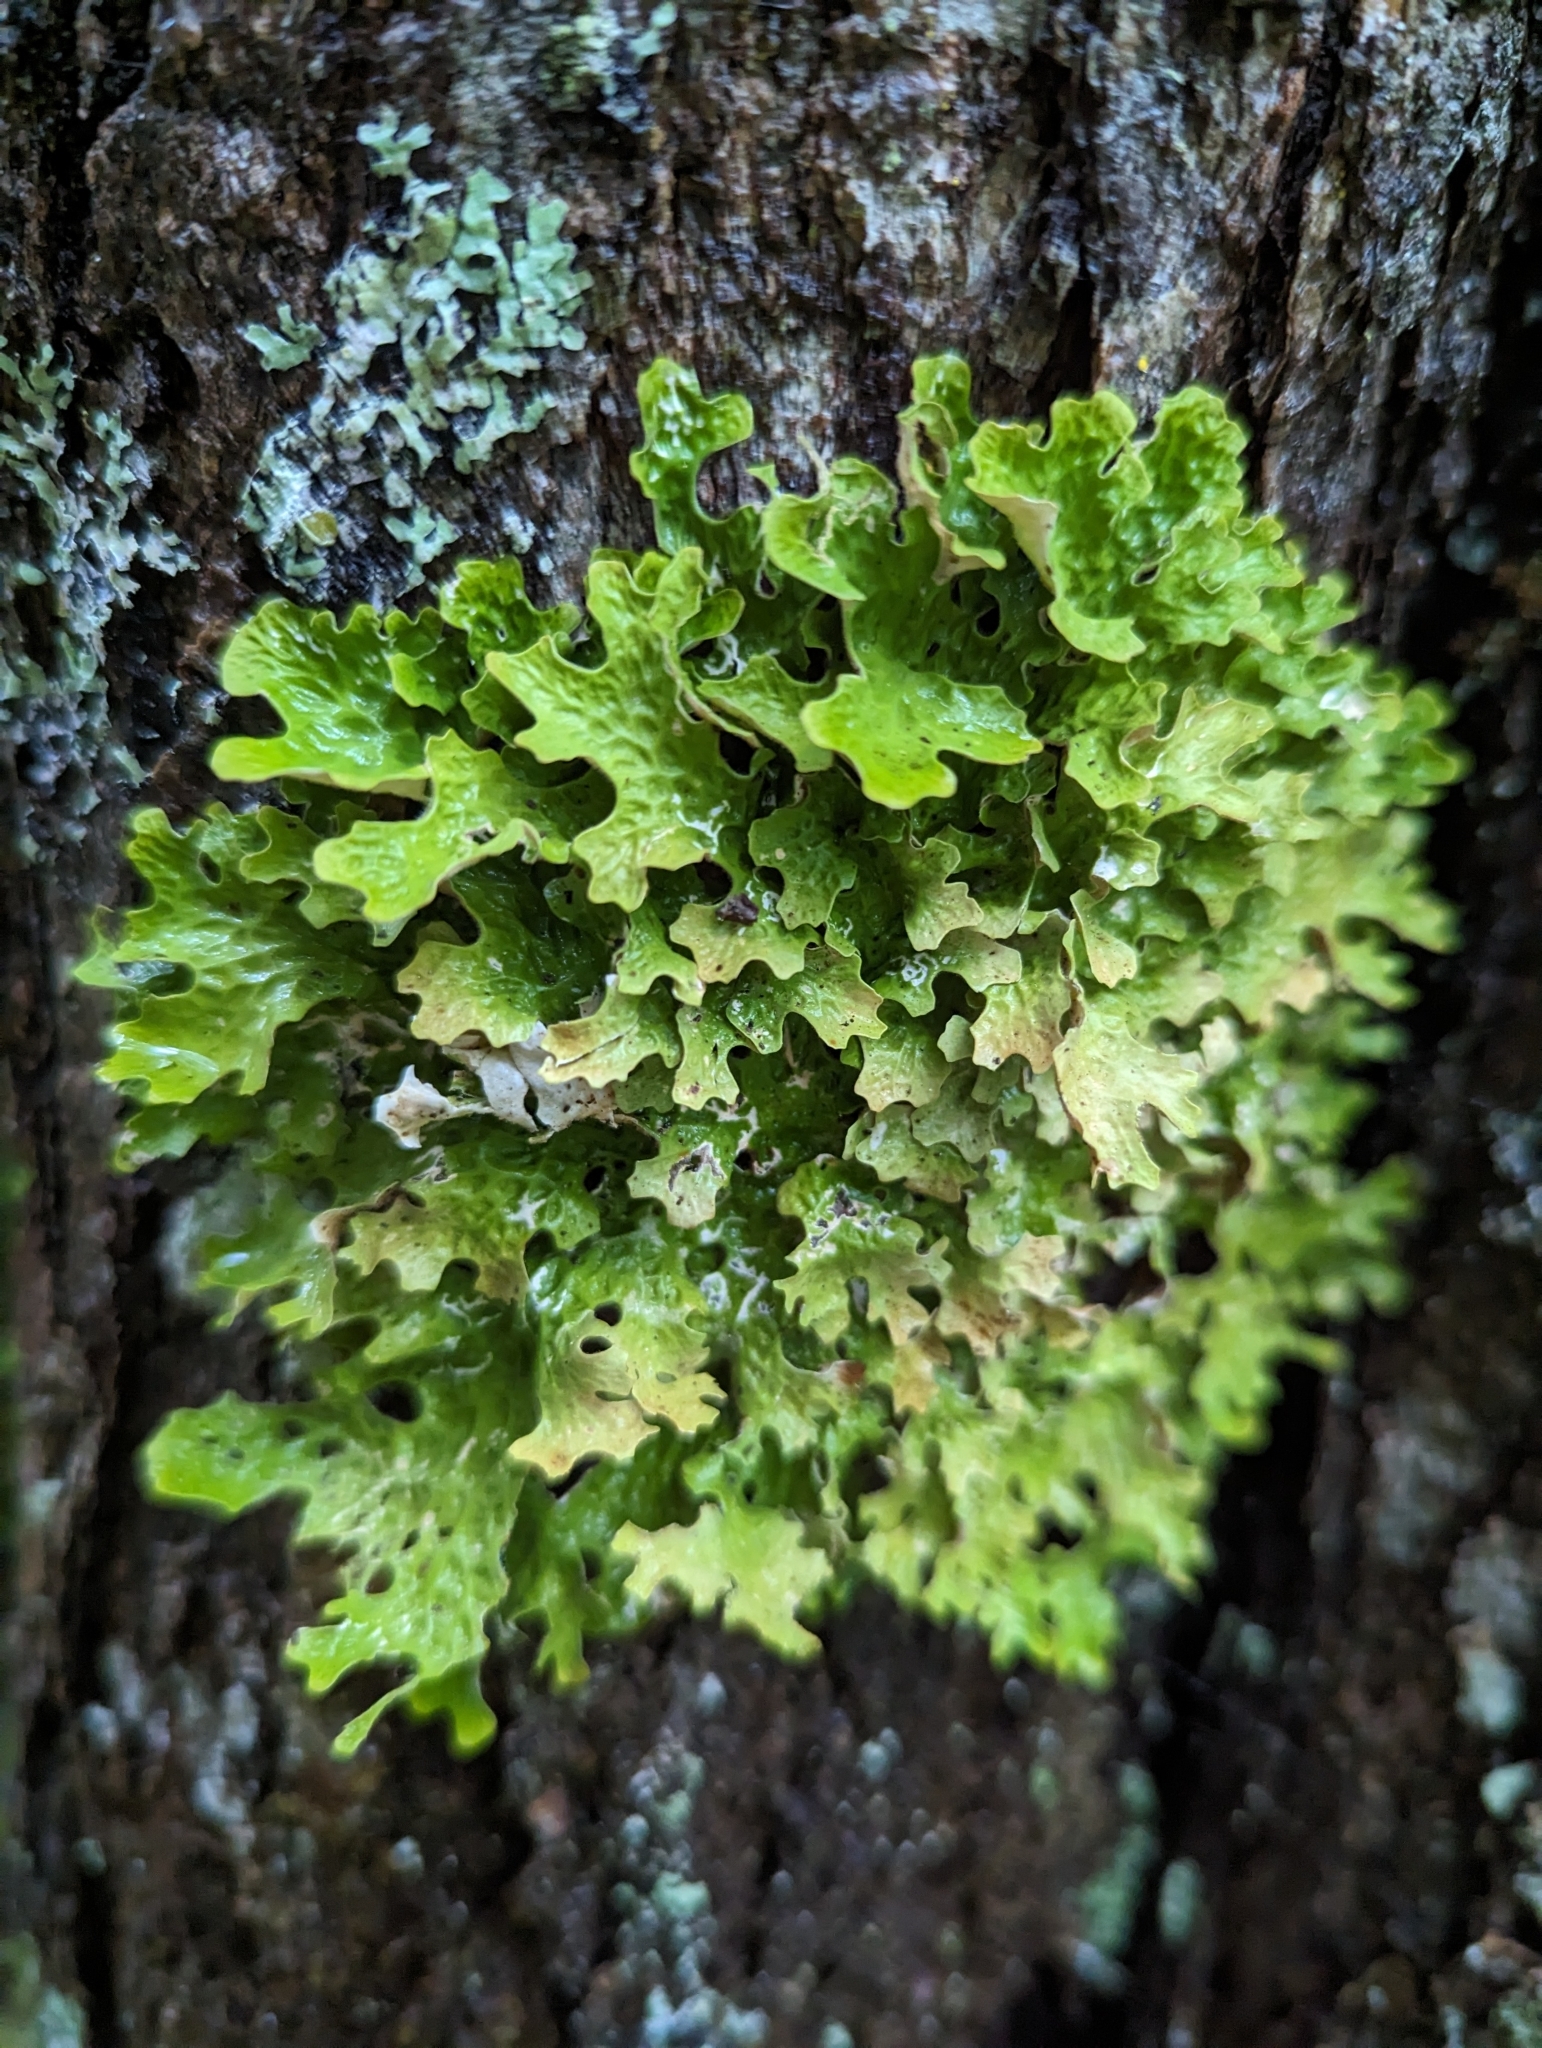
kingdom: Fungi
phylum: Ascomycota
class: Lecanoromycetes
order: Peltigerales
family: Lobariaceae
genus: Lobaria
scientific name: Lobaria pulmonaria
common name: Lungwort
